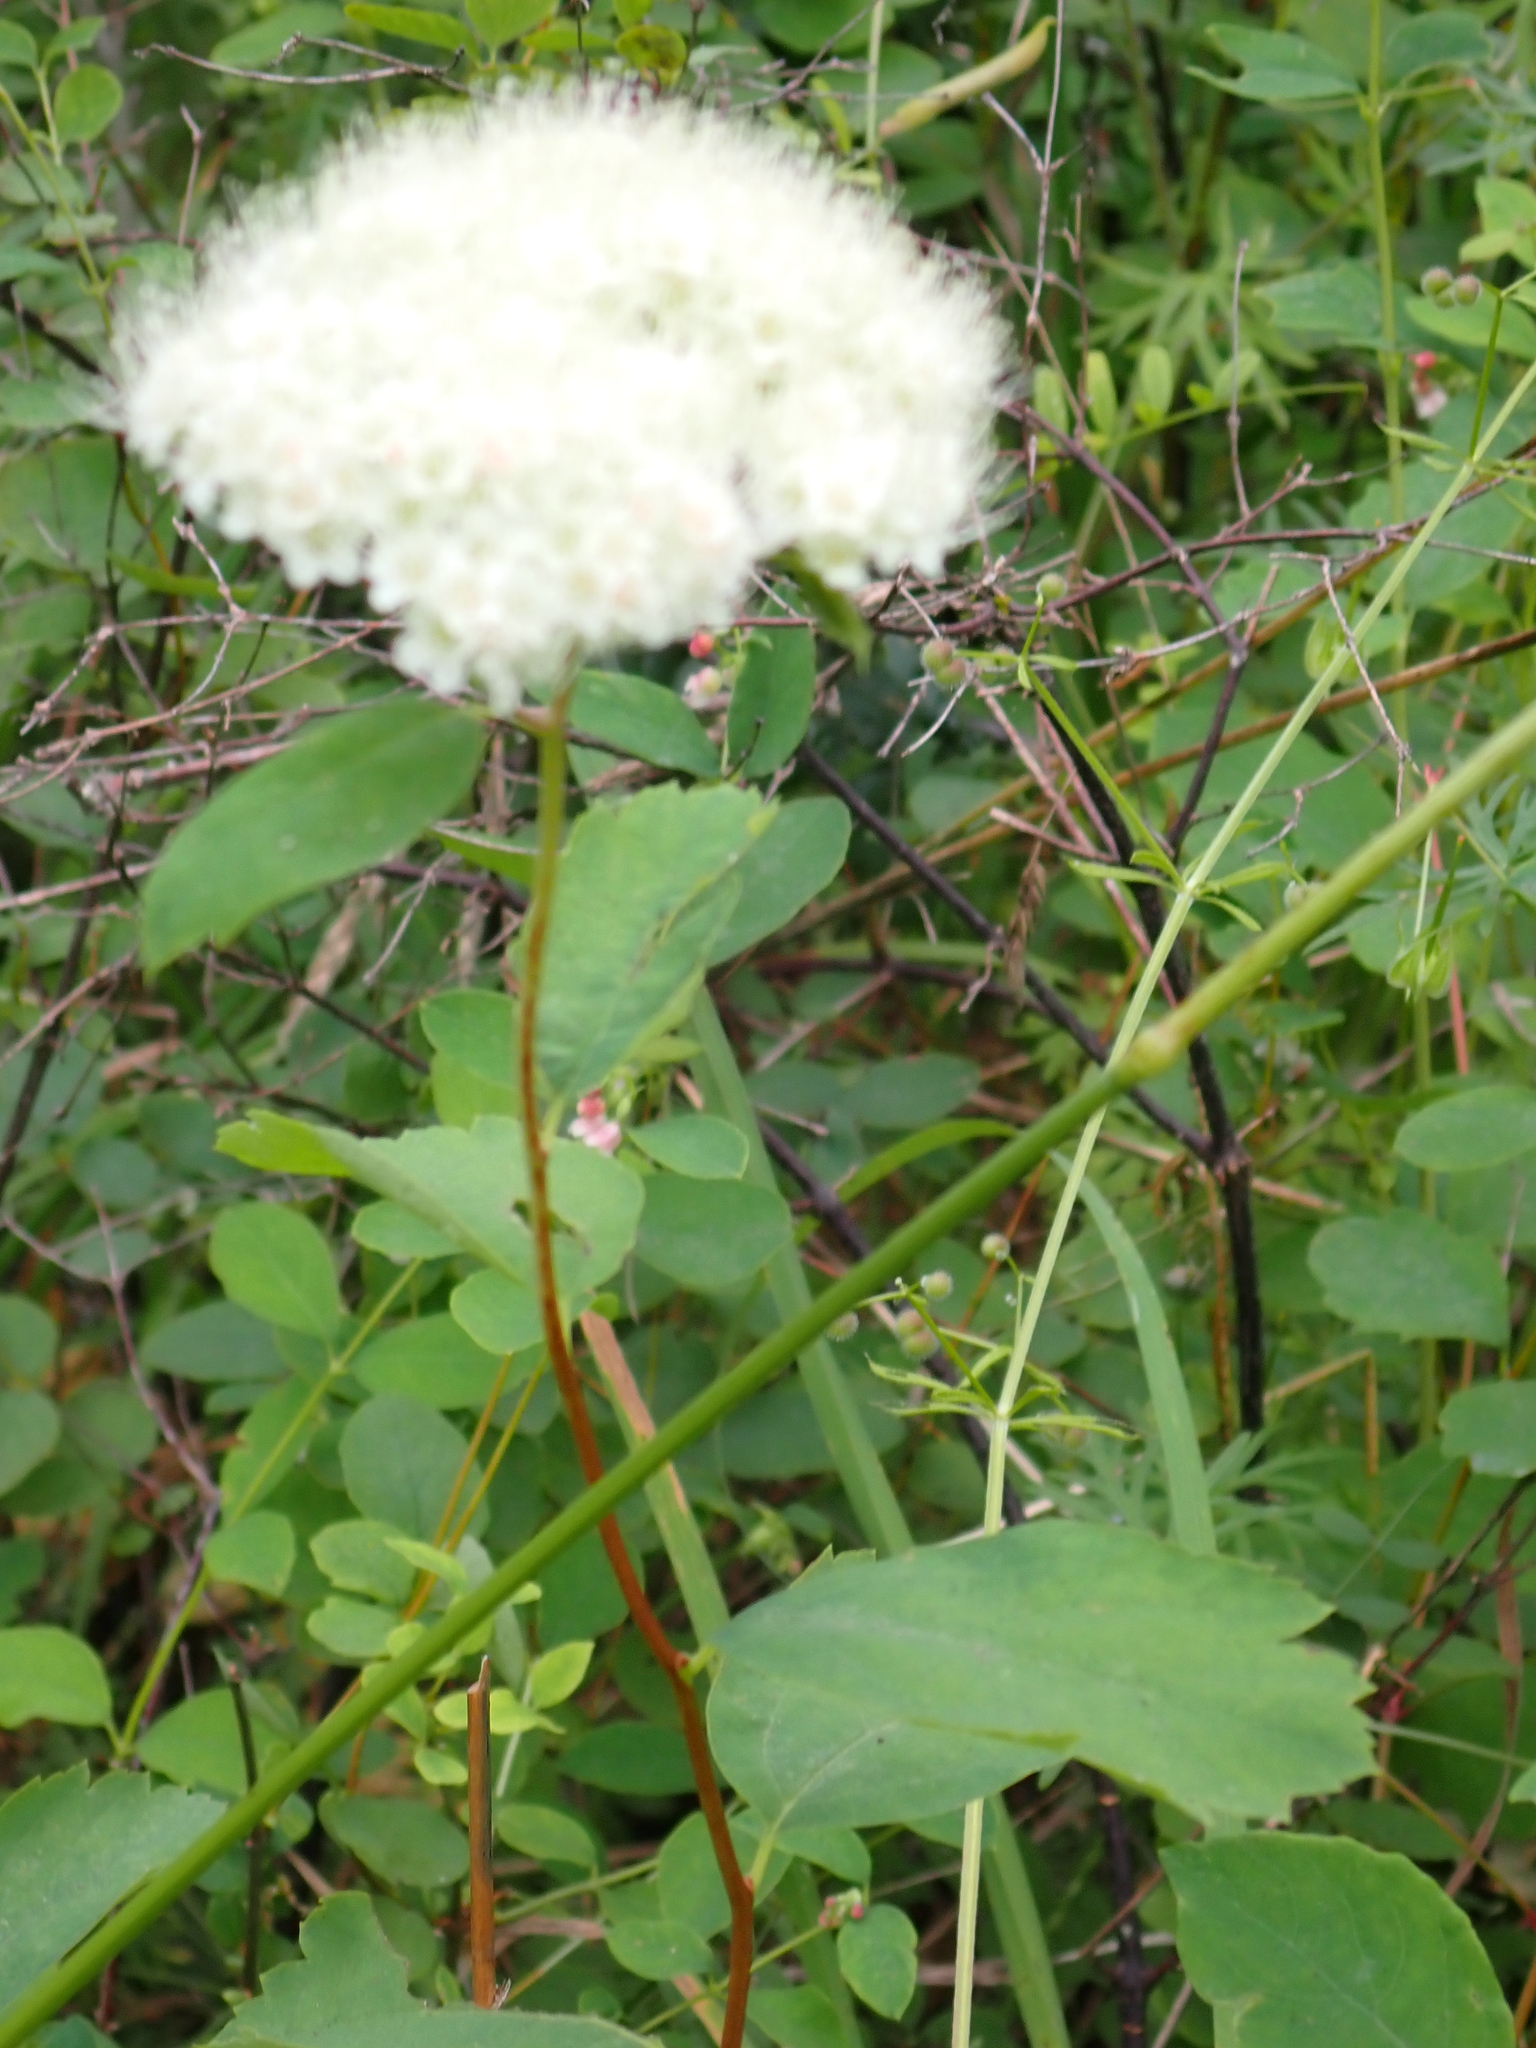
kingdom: Plantae
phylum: Tracheophyta
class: Magnoliopsida
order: Rosales
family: Rosaceae
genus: Spiraea
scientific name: Spiraea lucida
